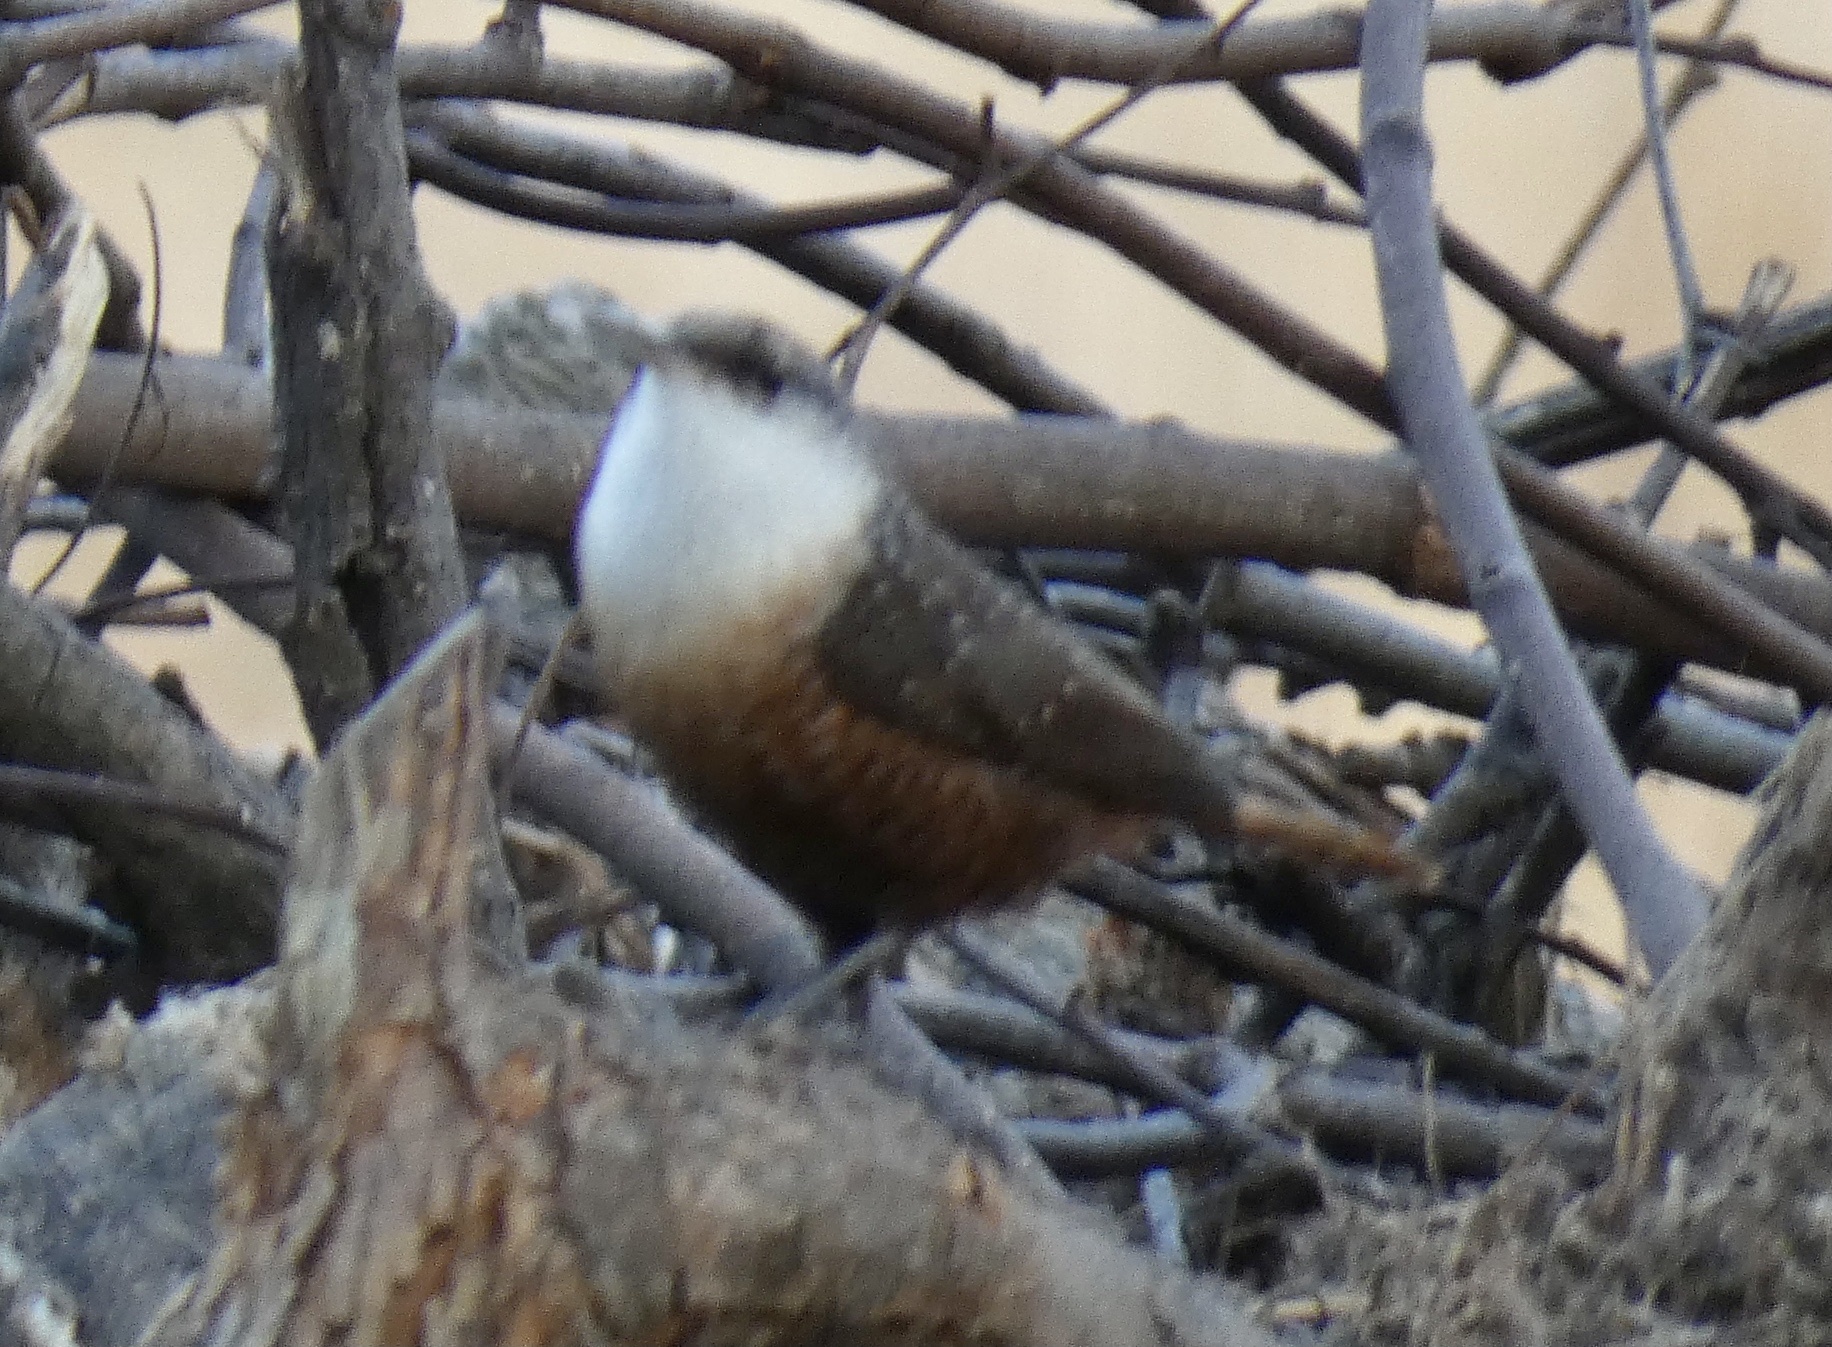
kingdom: Animalia
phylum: Chordata
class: Aves
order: Passeriformes
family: Troglodytidae
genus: Catherpes
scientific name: Catherpes mexicanus
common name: Canyon wren
